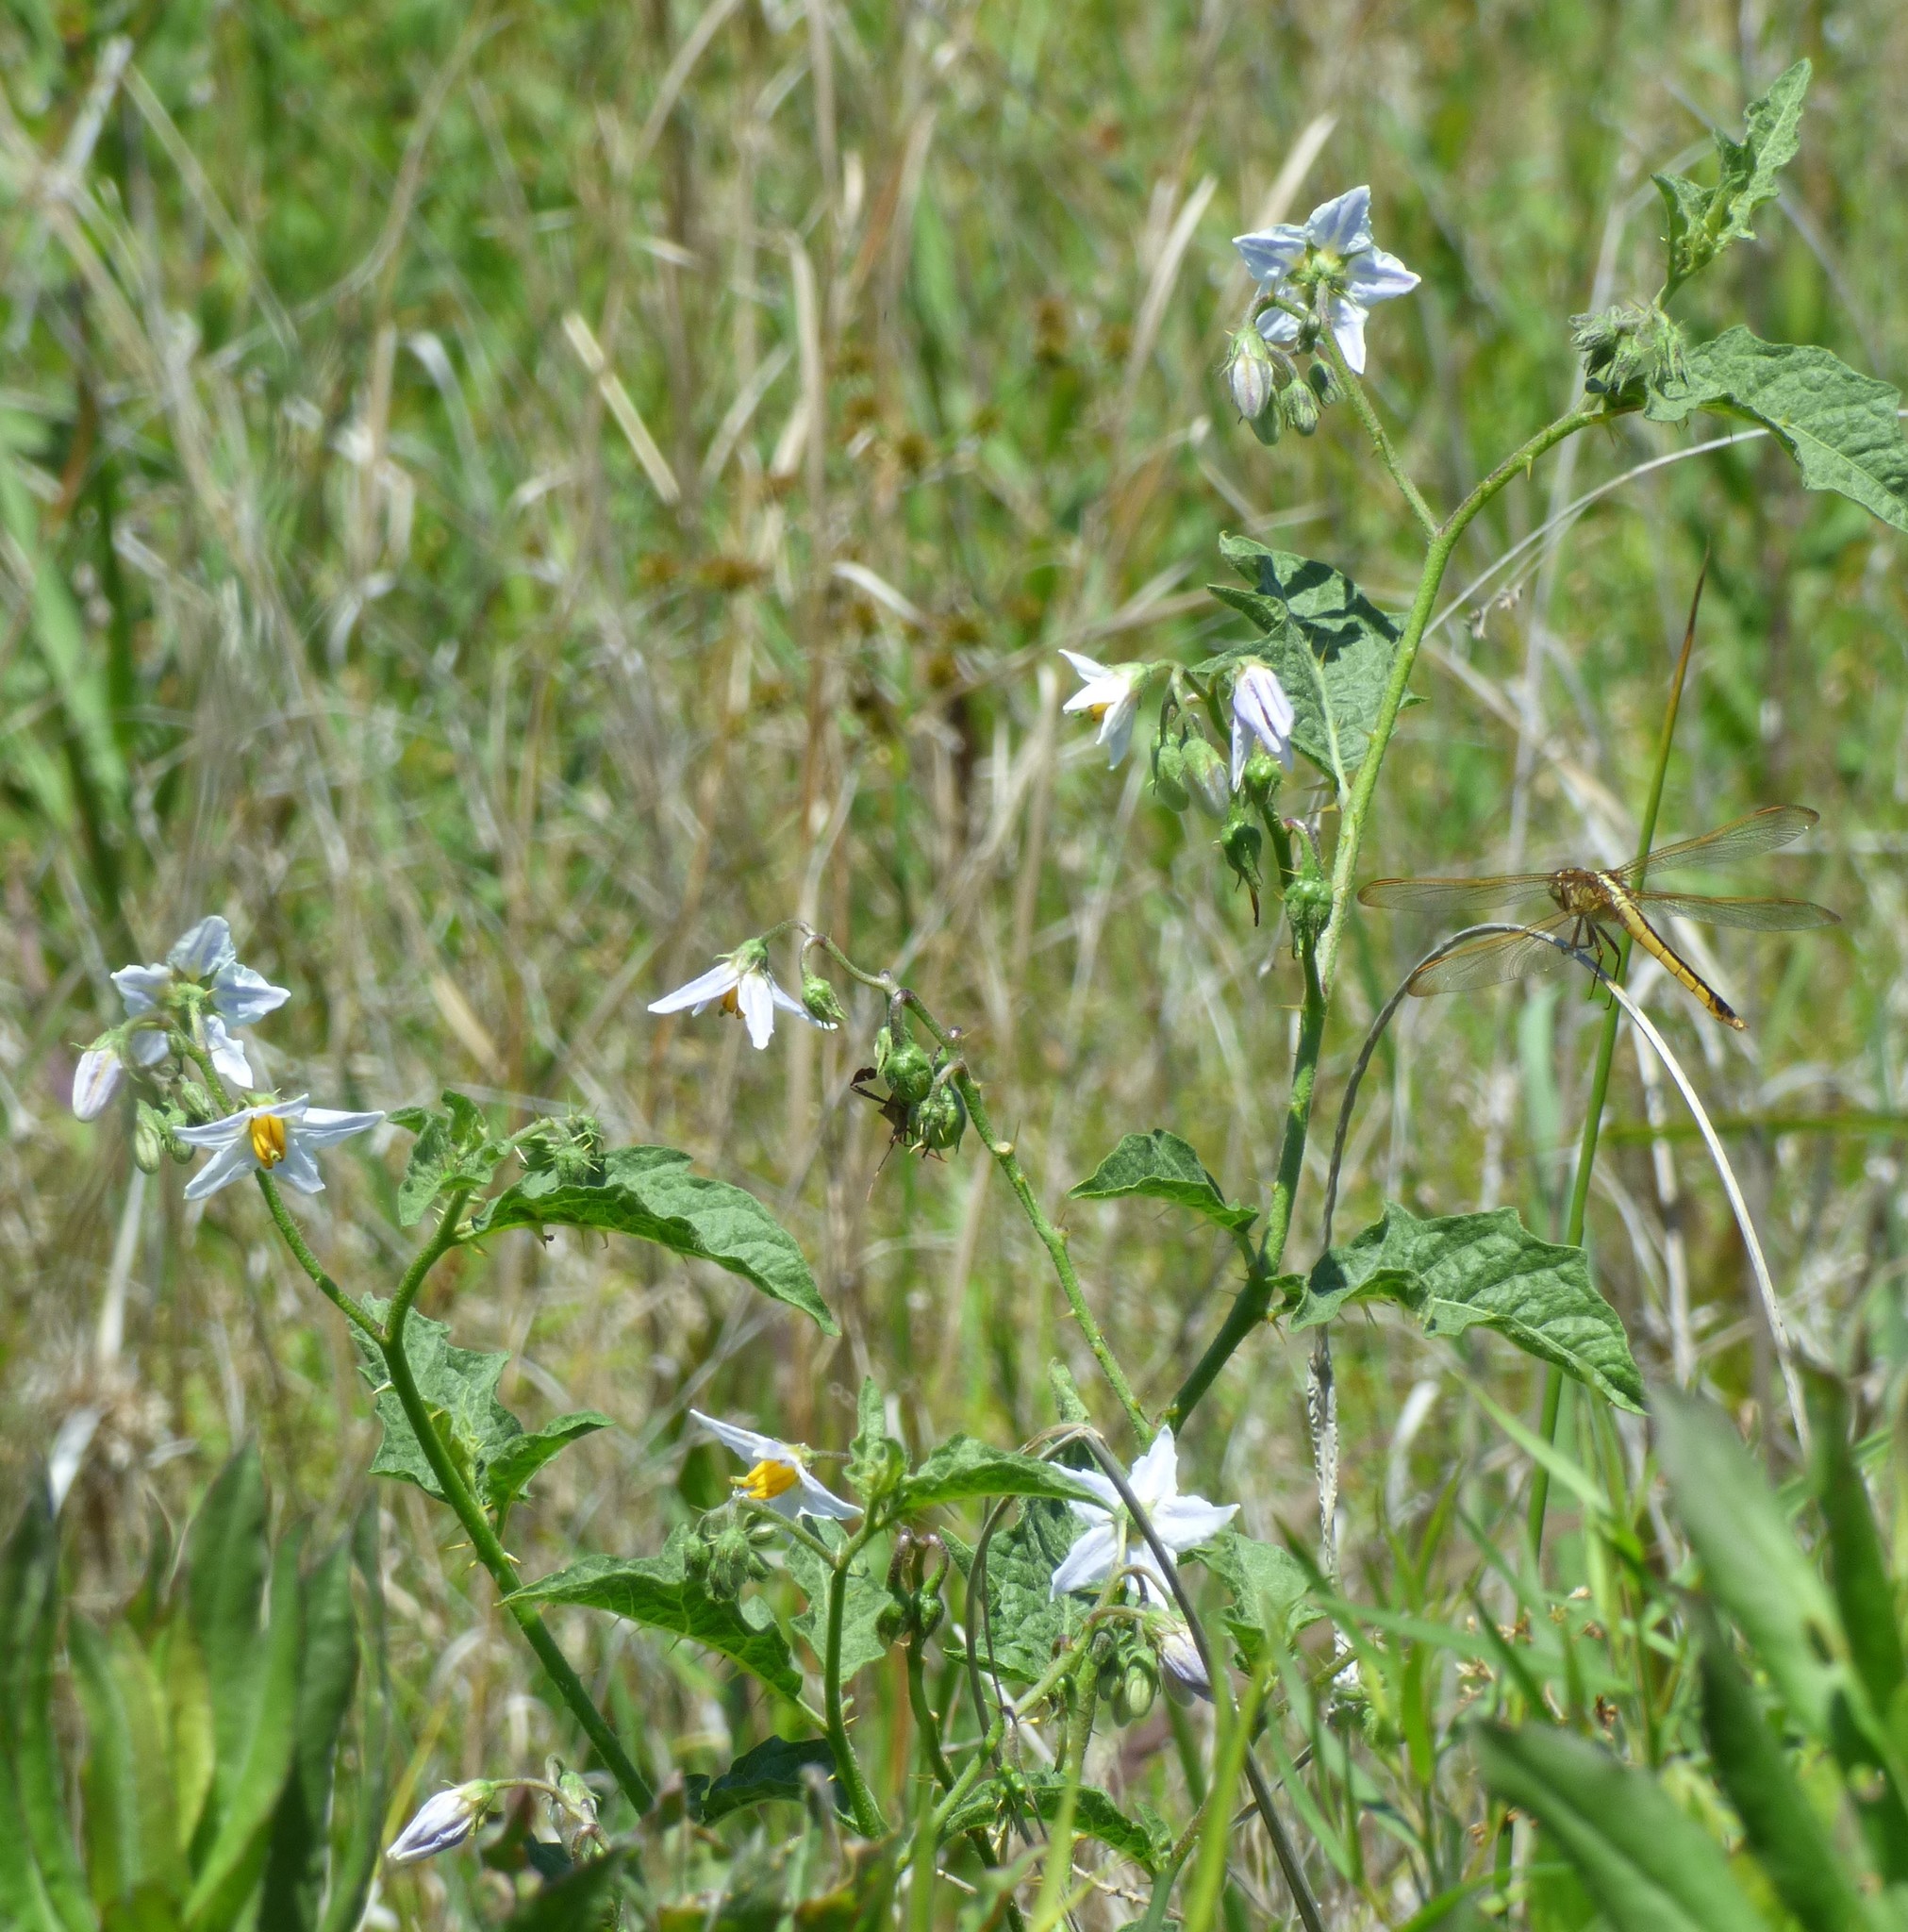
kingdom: Plantae
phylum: Tracheophyta
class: Magnoliopsida
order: Solanales
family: Solanaceae
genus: Solanum
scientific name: Solanum carolinense
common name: Horse-nettle
